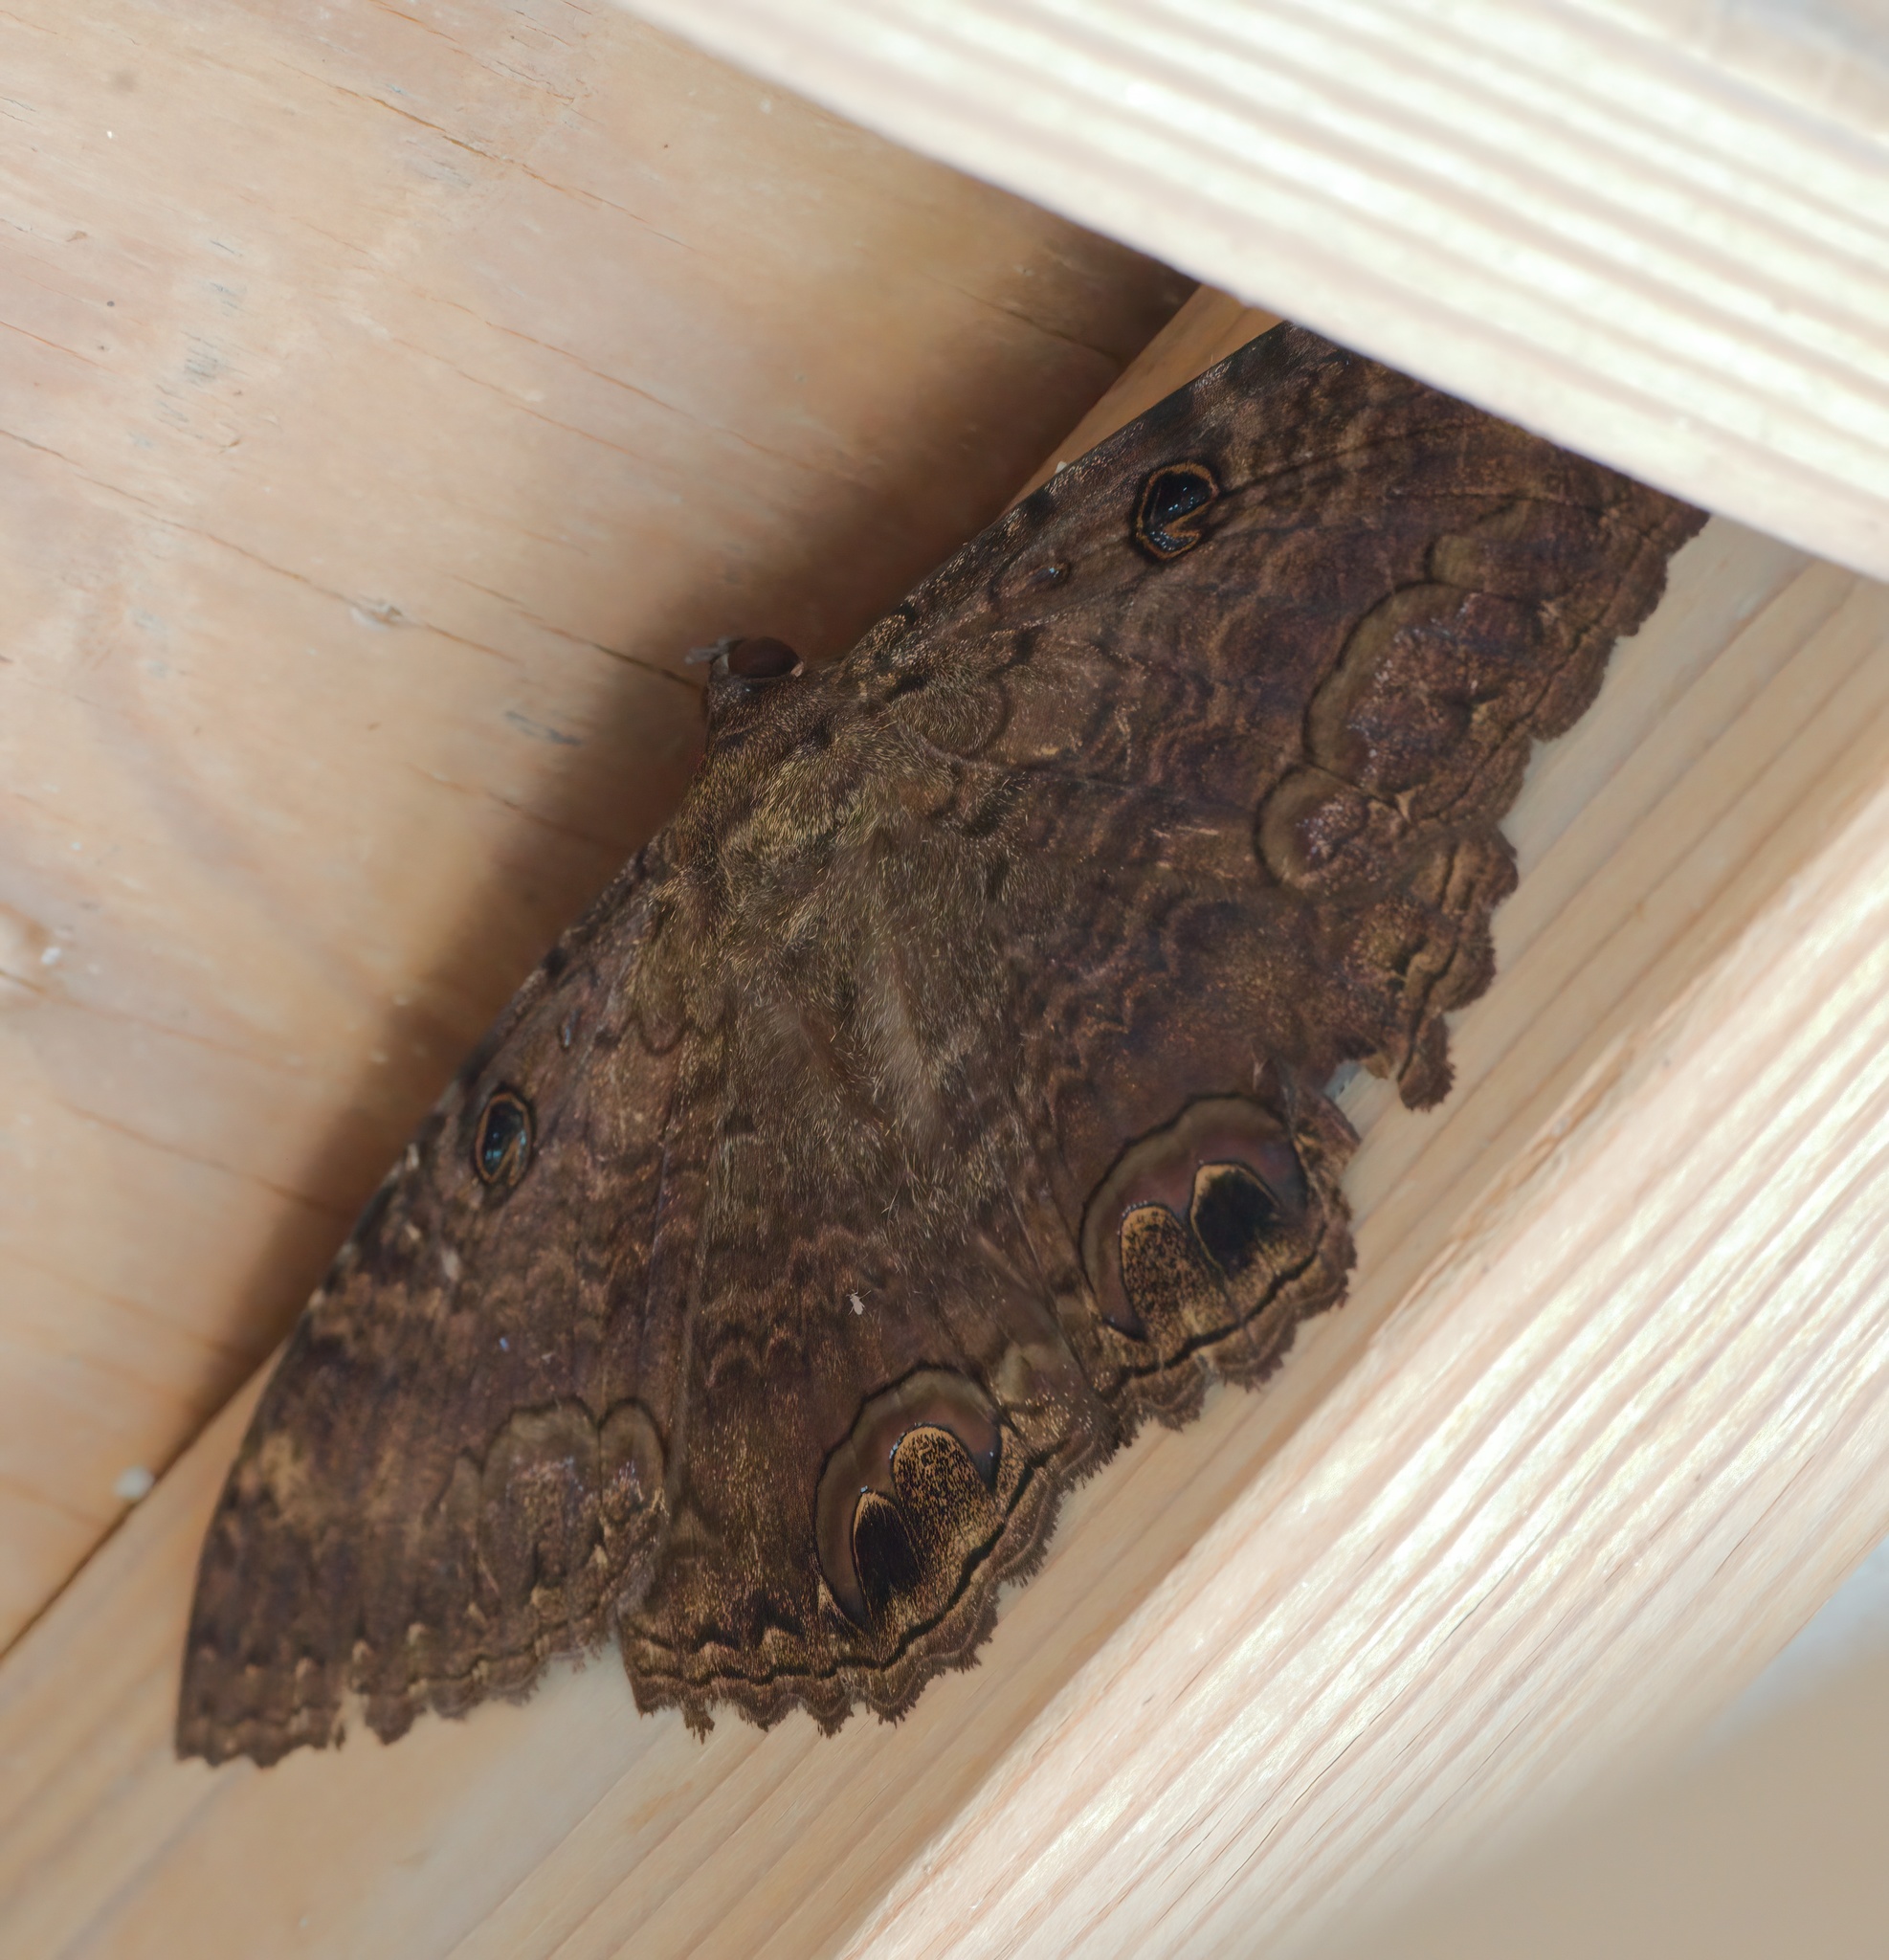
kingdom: Animalia
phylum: Arthropoda
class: Insecta
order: Lepidoptera
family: Erebidae
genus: Ascalapha
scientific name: Ascalapha odorata
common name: Black witch
